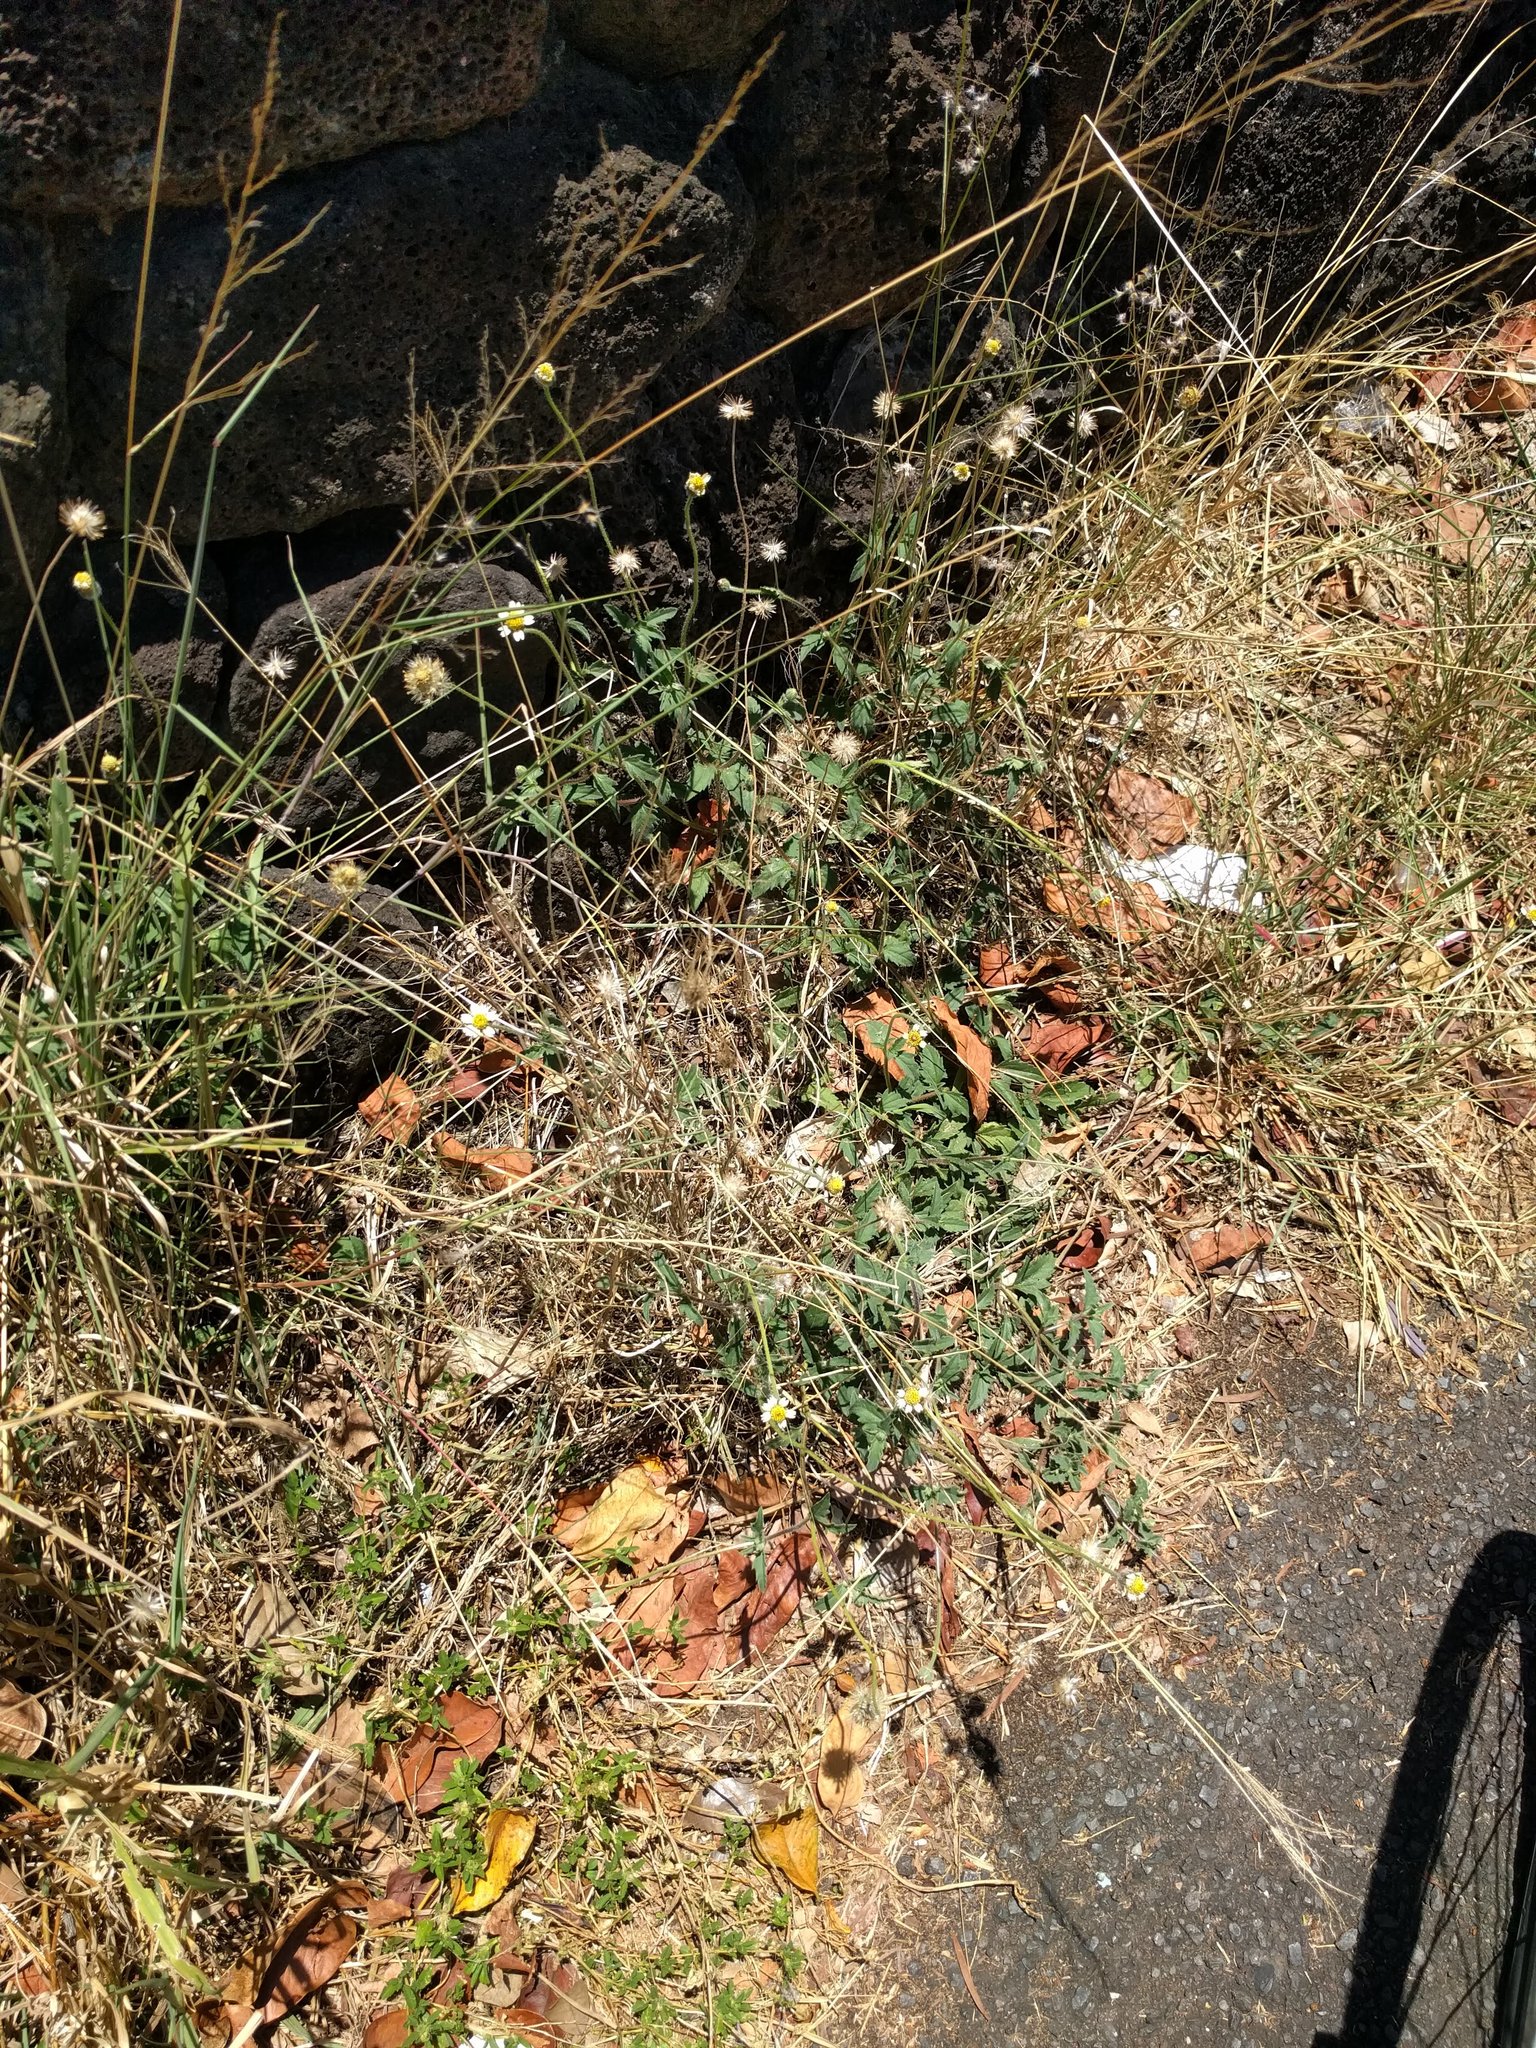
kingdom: Plantae
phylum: Tracheophyta
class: Magnoliopsida
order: Asterales
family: Asteraceae
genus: Tridax
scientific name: Tridax procumbens
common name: Coatbuttons
